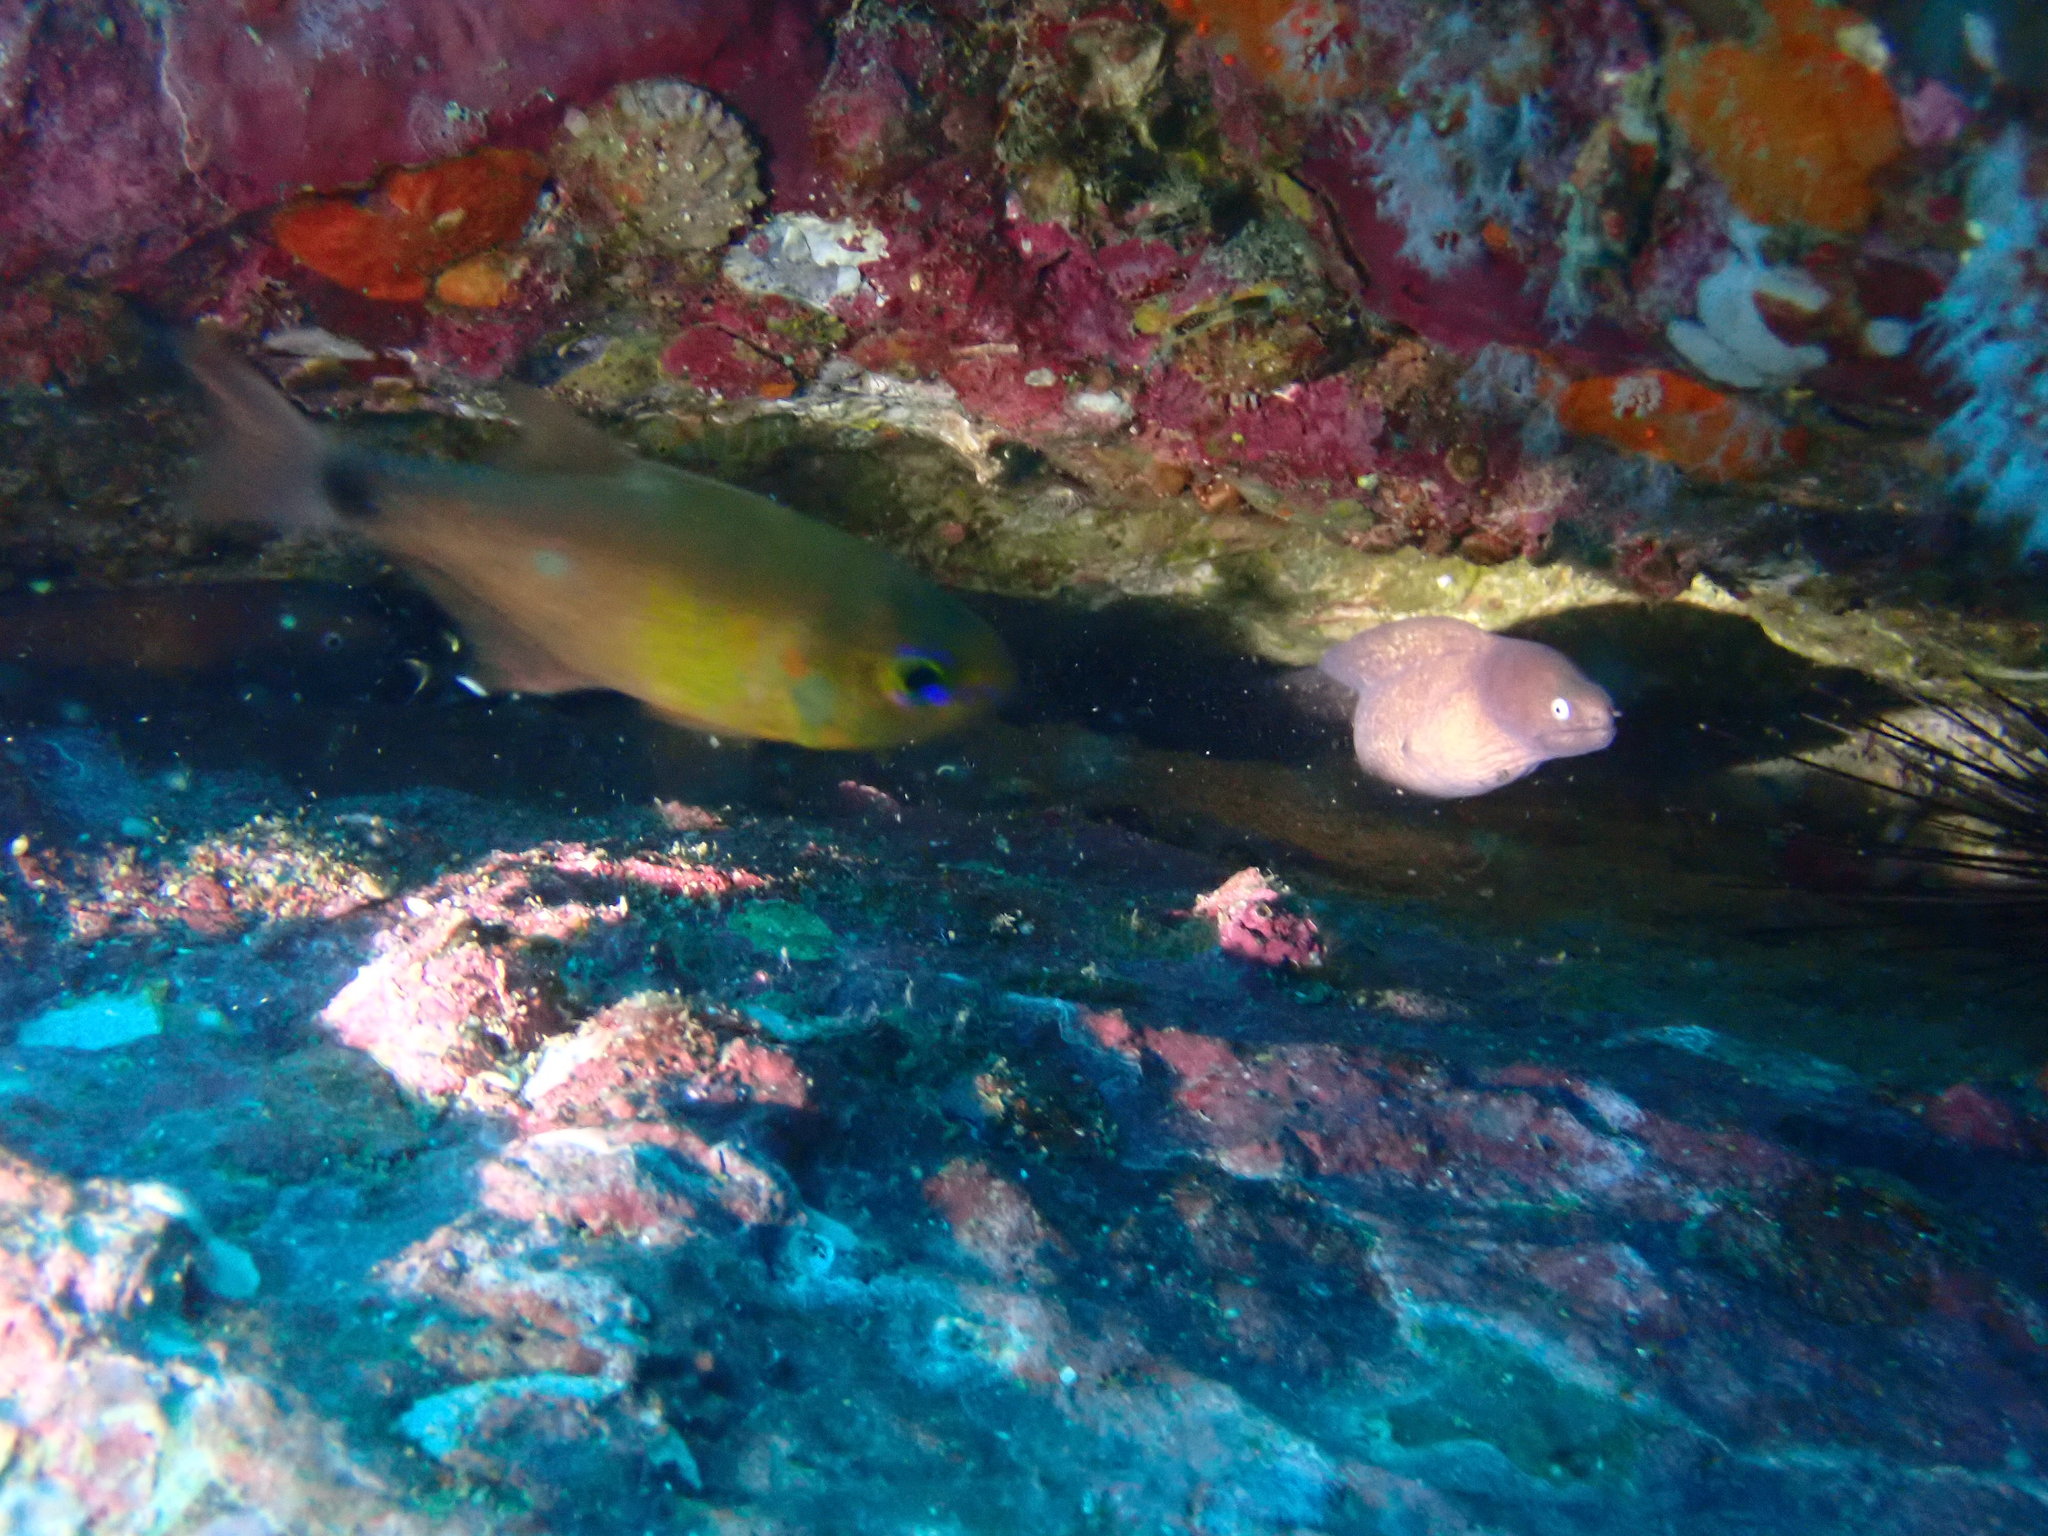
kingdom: Animalia
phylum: Chordata
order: Anguilliformes
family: Muraenidae
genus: Gymnothorax
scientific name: Gymnothorax thyrsoideus
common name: Greyface moray
